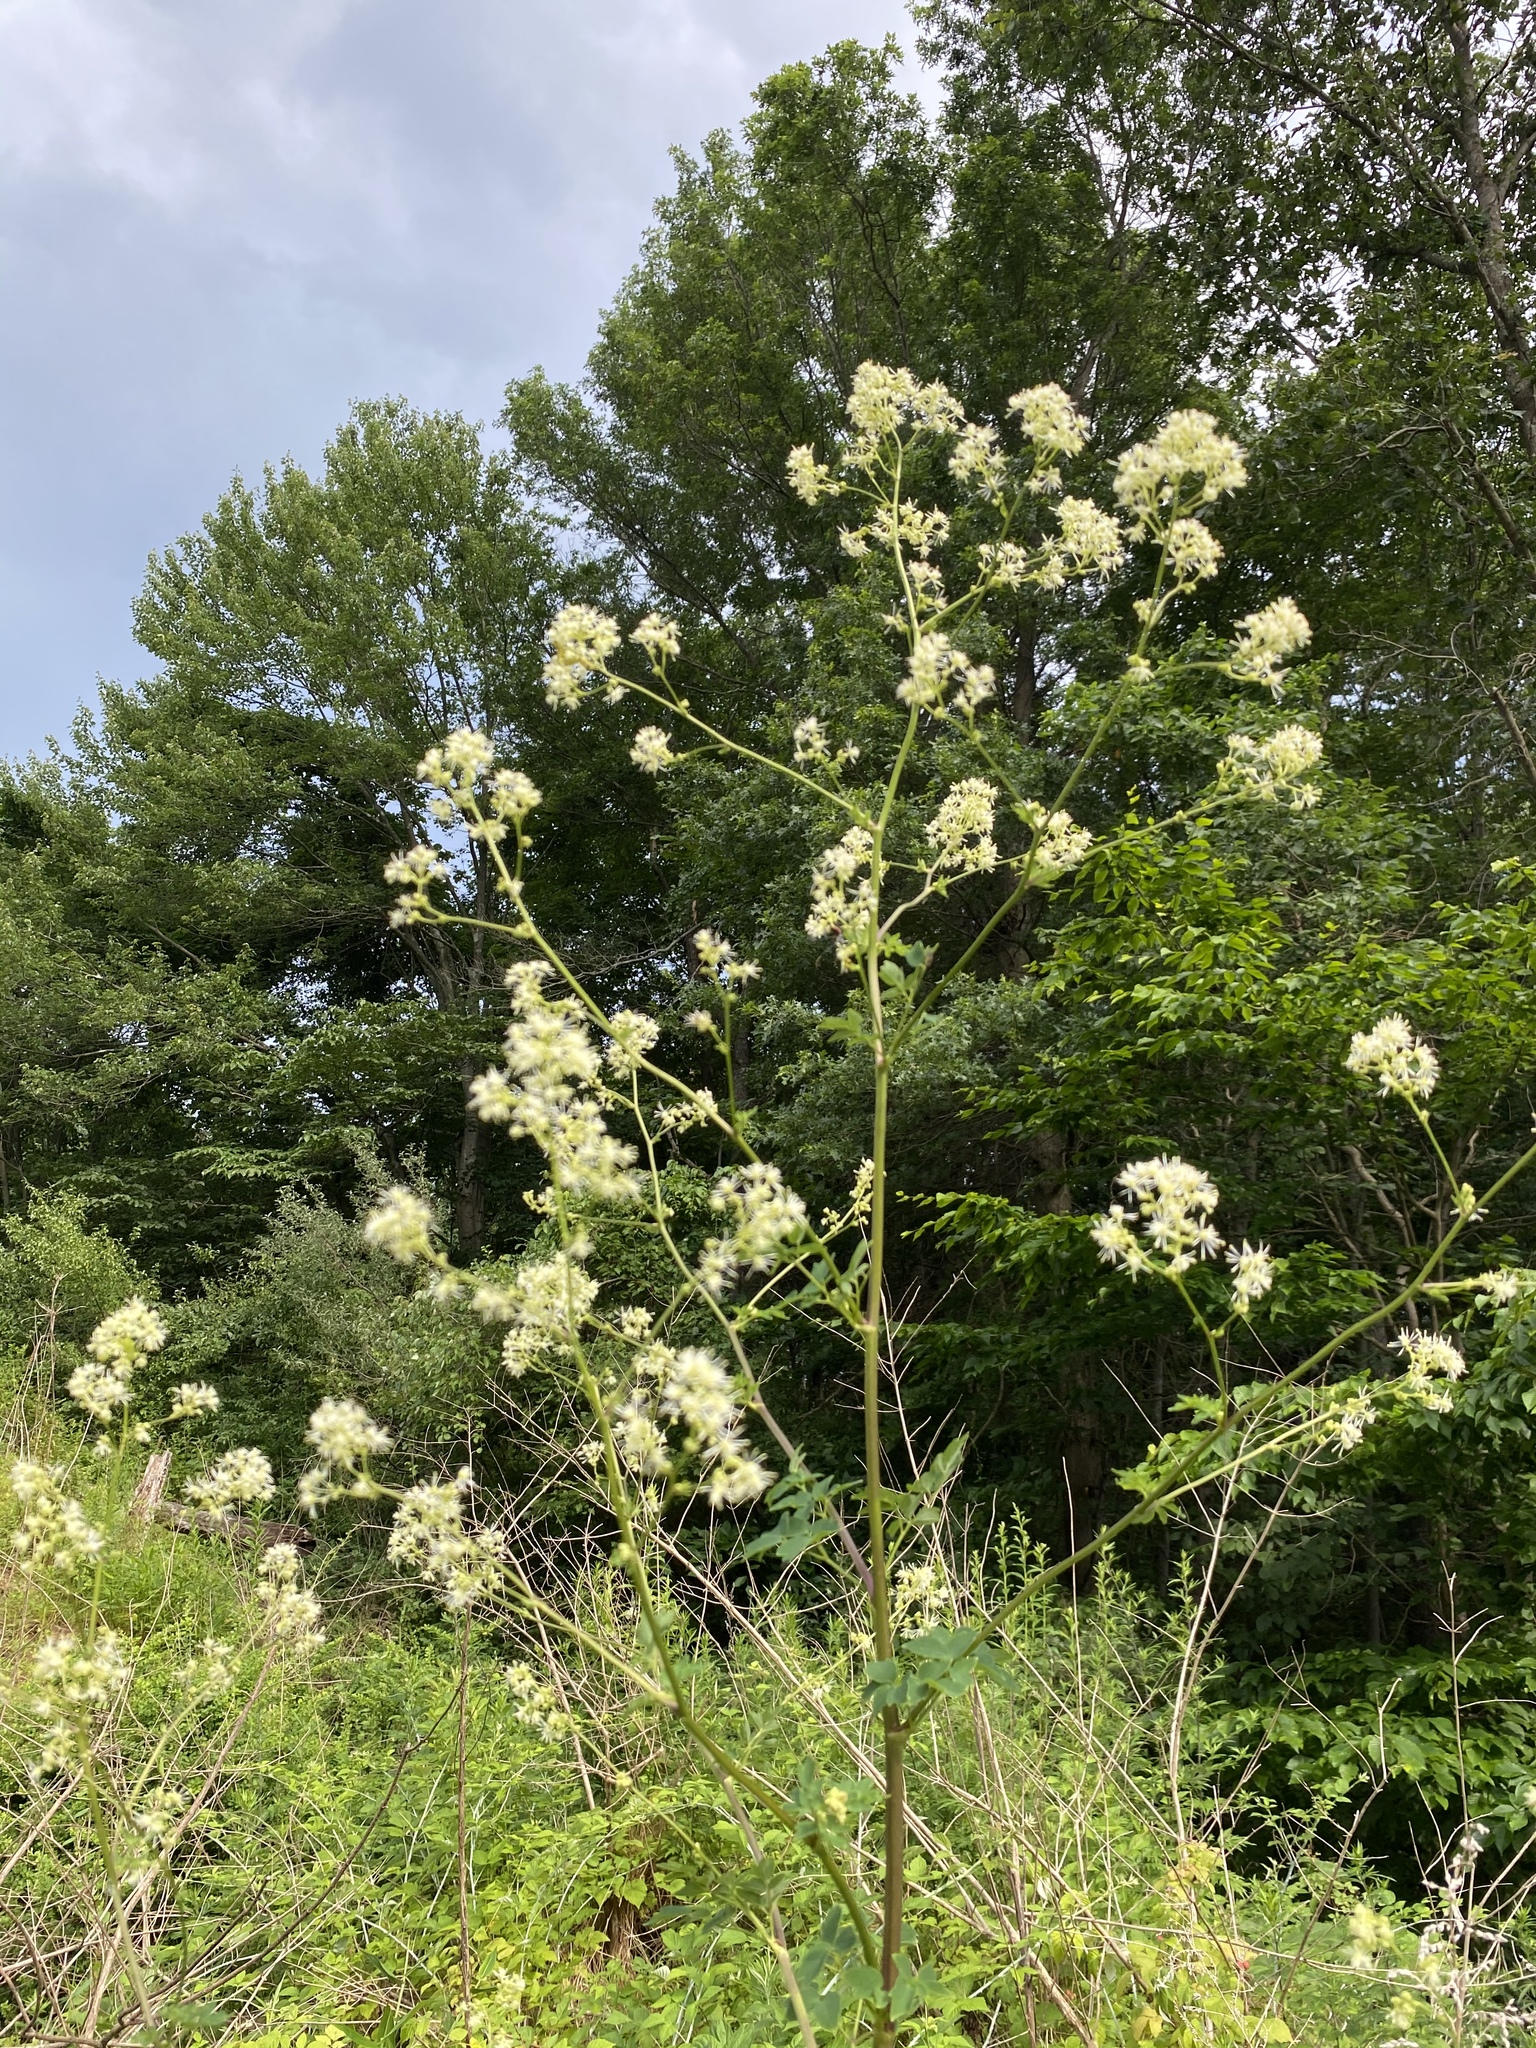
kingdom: Plantae
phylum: Tracheophyta
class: Magnoliopsida
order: Ranunculales
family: Ranunculaceae
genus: Thalictrum
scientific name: Thalictrum pubescens
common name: King-of-the-meadow
